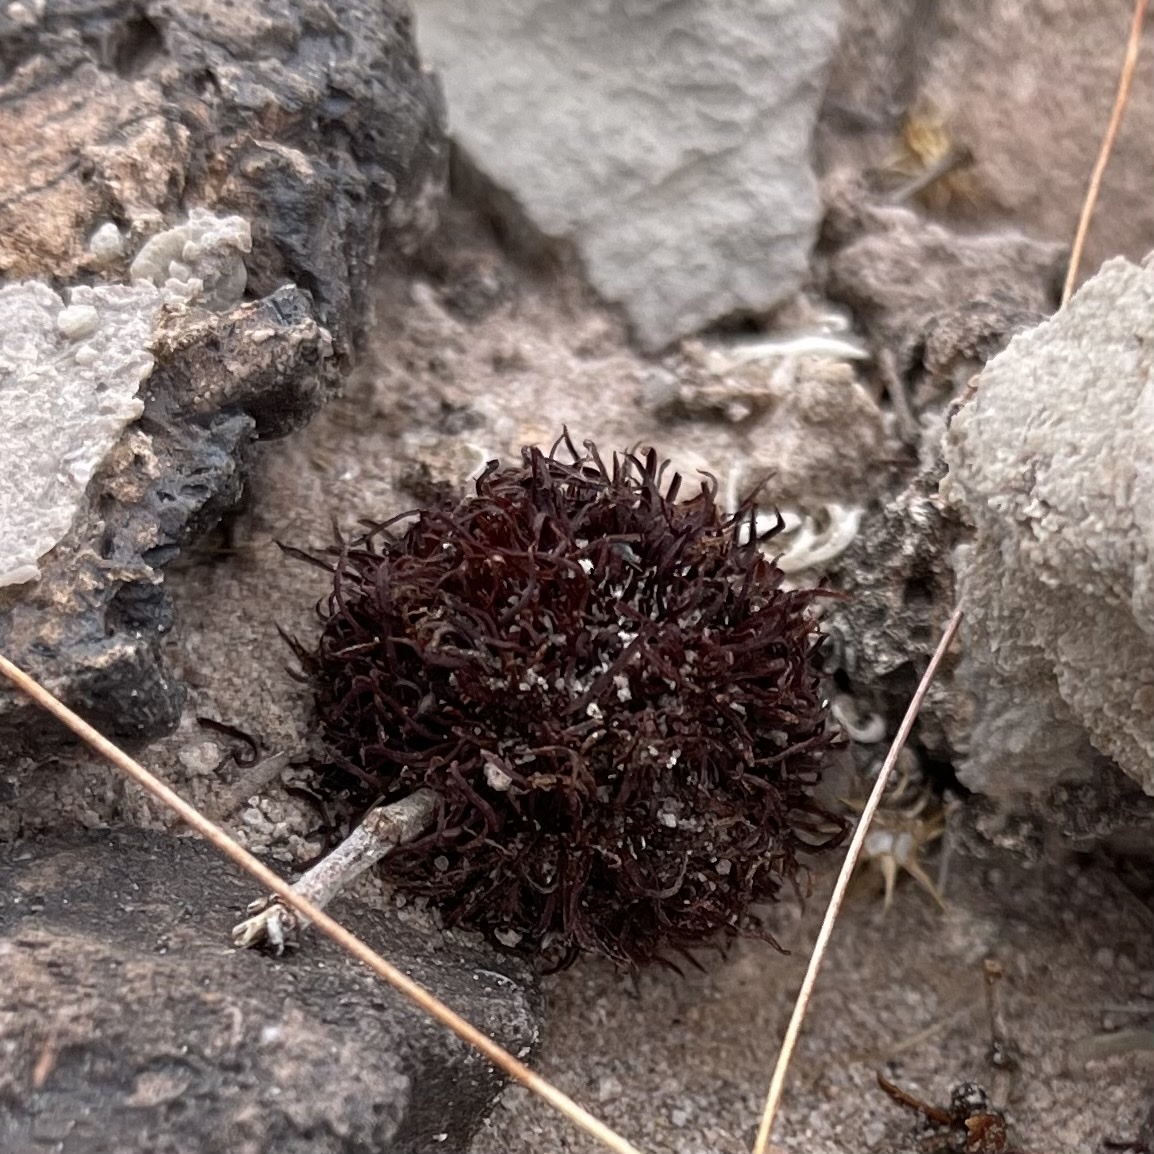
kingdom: Animalia
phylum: Arthropoda
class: Insecta
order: Diptera
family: Cecidomyiidae
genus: Asphondylia
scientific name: Asphondylia auripila
